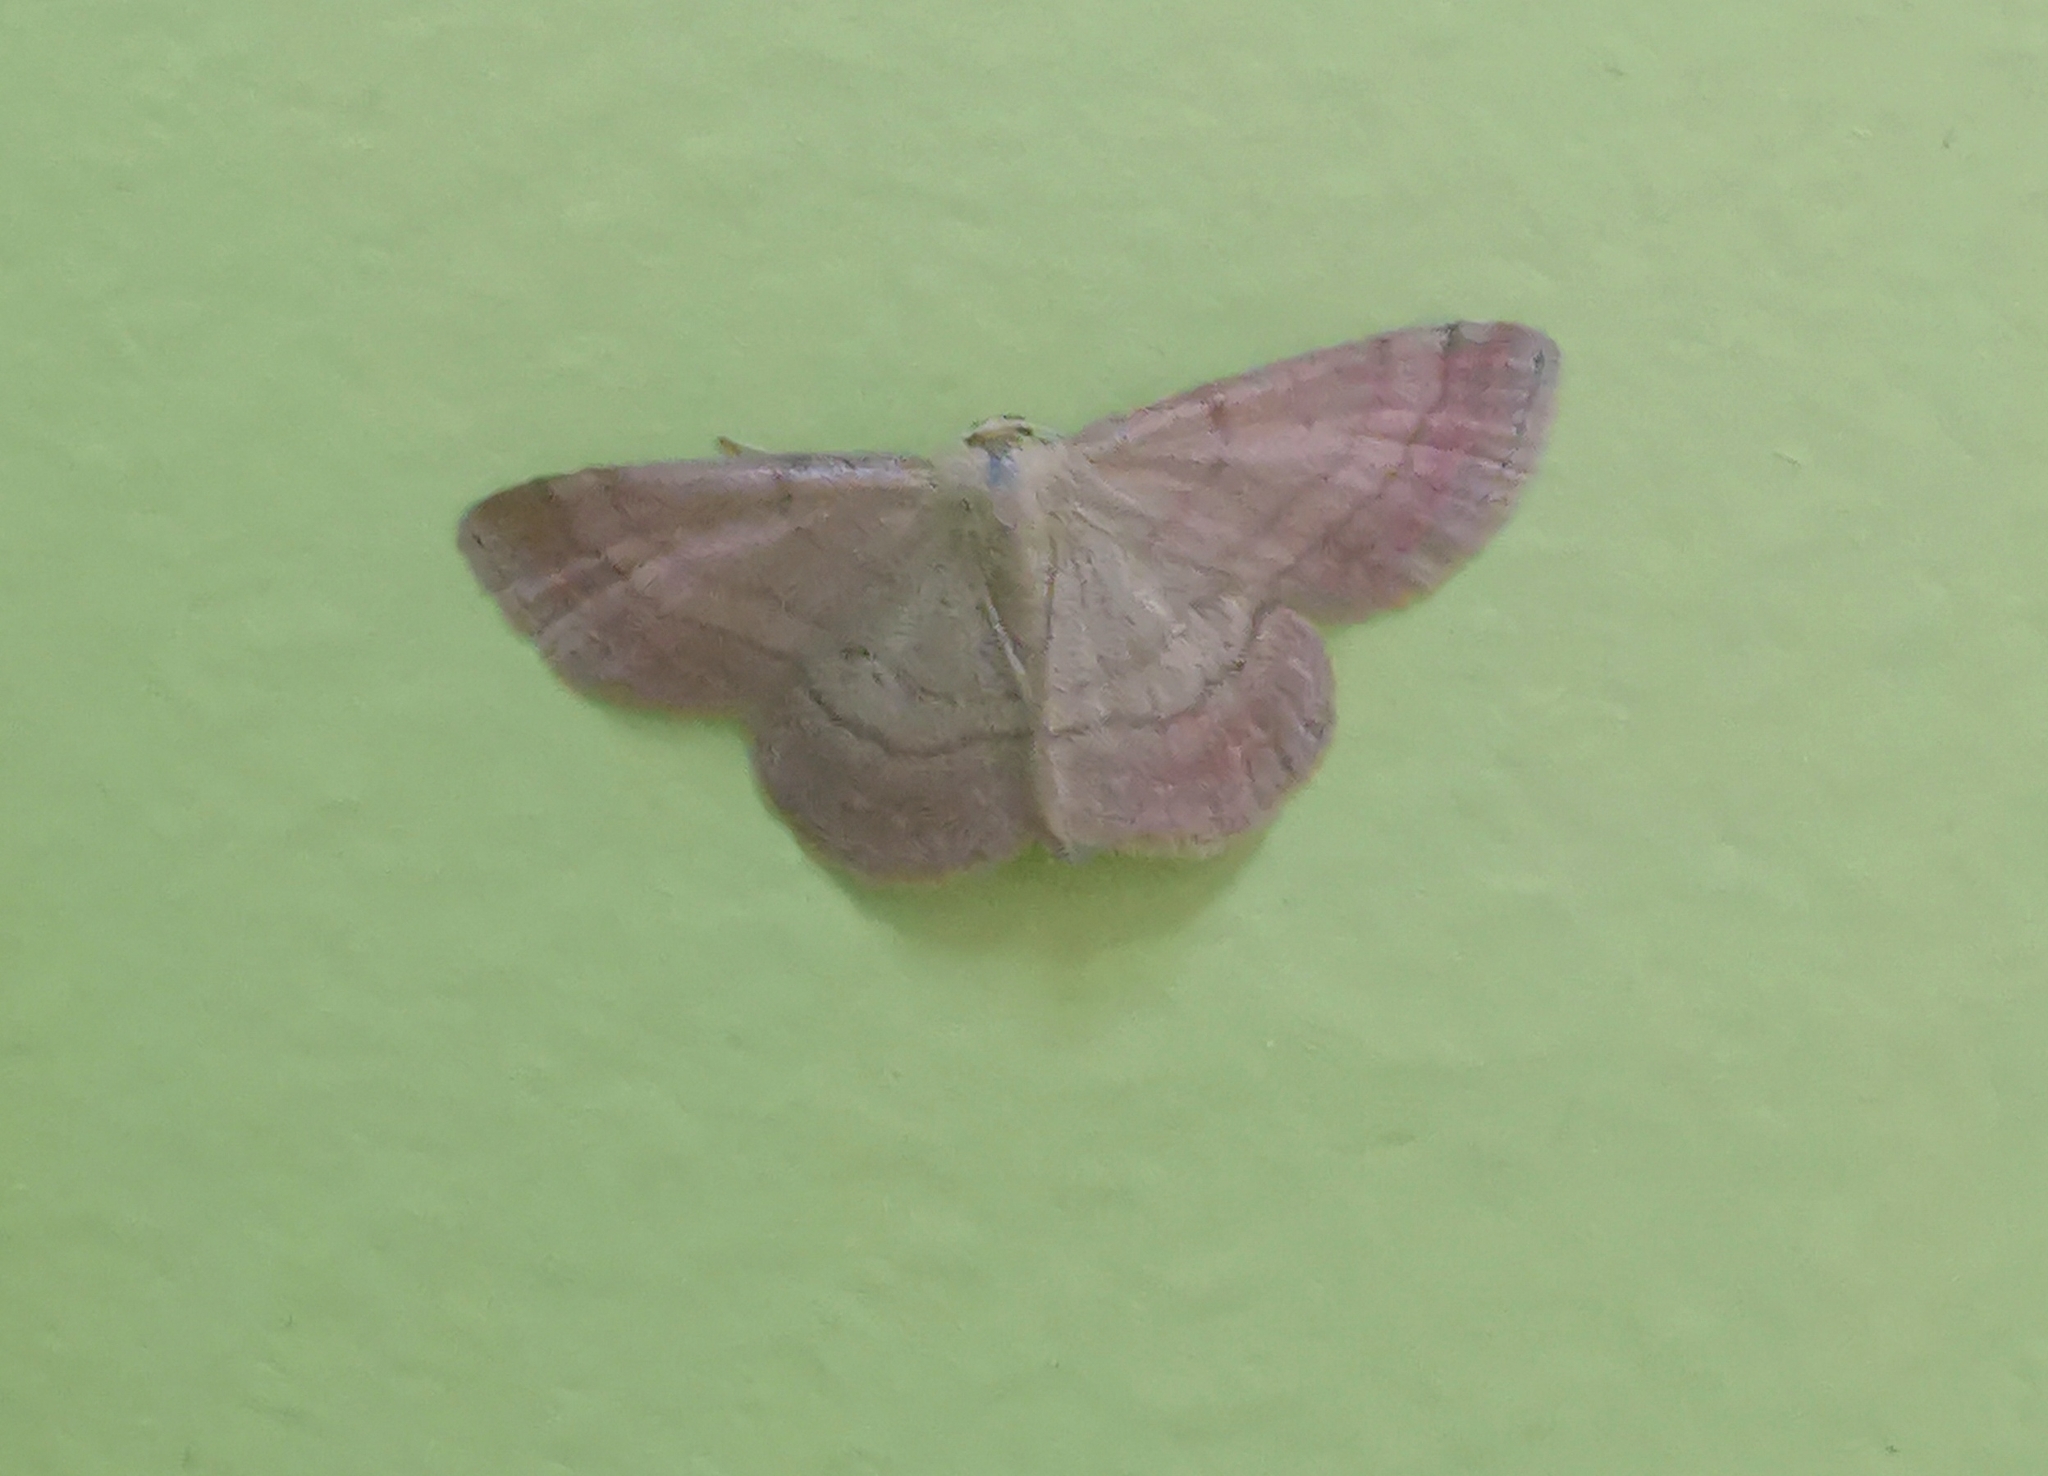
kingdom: Animalia
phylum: Arthropoda
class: Insecta
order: Lepidoptera
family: Geometridae
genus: Scopula
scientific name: Scopula rubiginata
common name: Tawny wave
